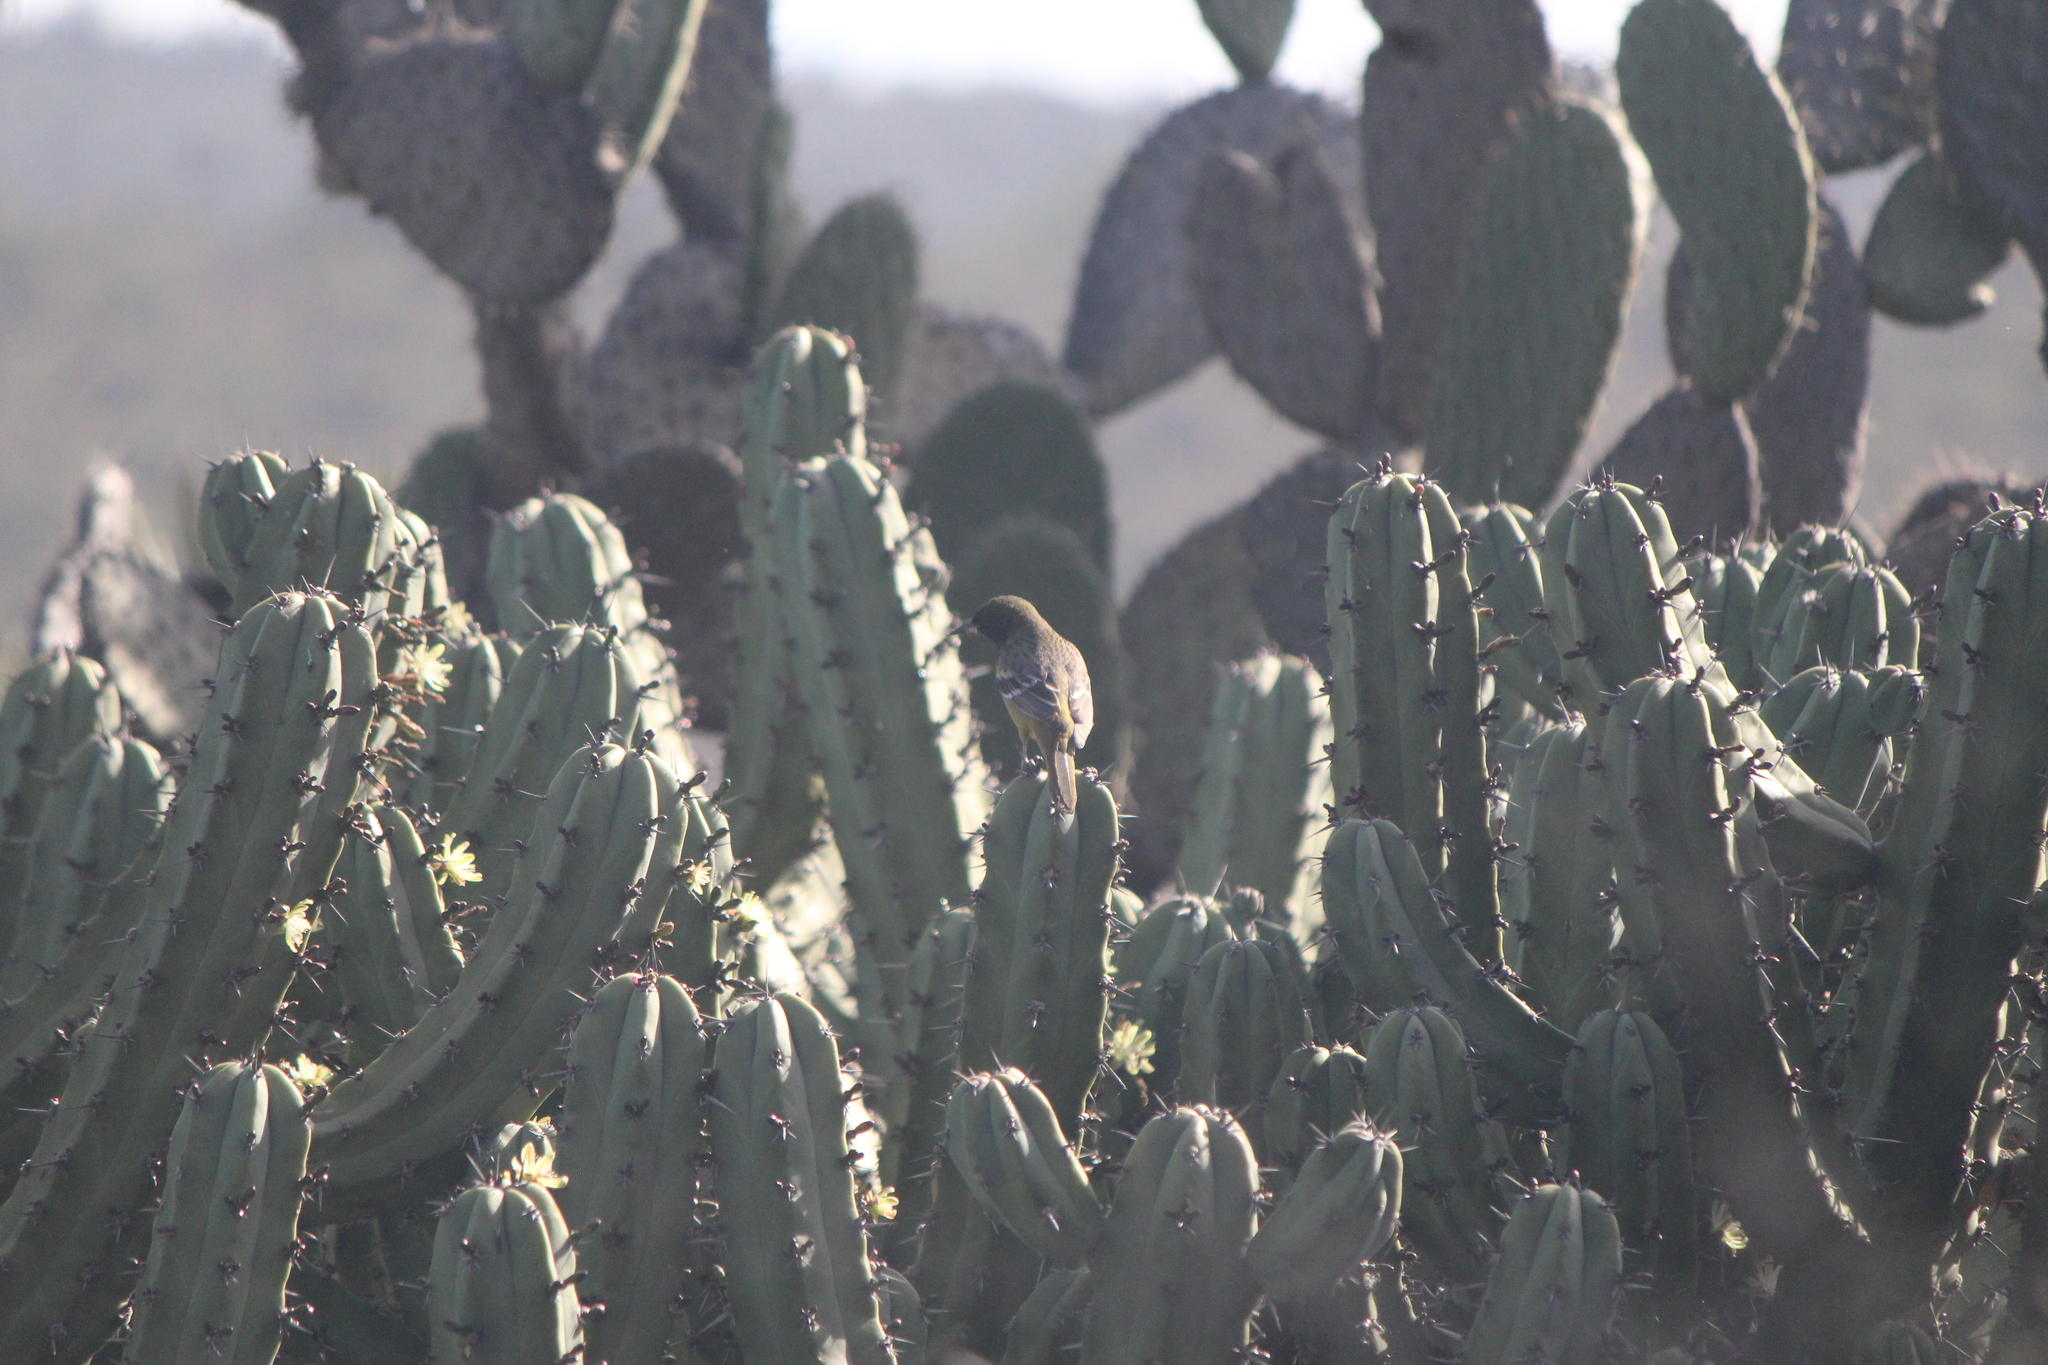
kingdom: Animalia
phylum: Chordata
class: Aves
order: Passeriformes
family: Icteridae
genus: Icterus
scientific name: Icterus parisorum
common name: Scott's oriole
